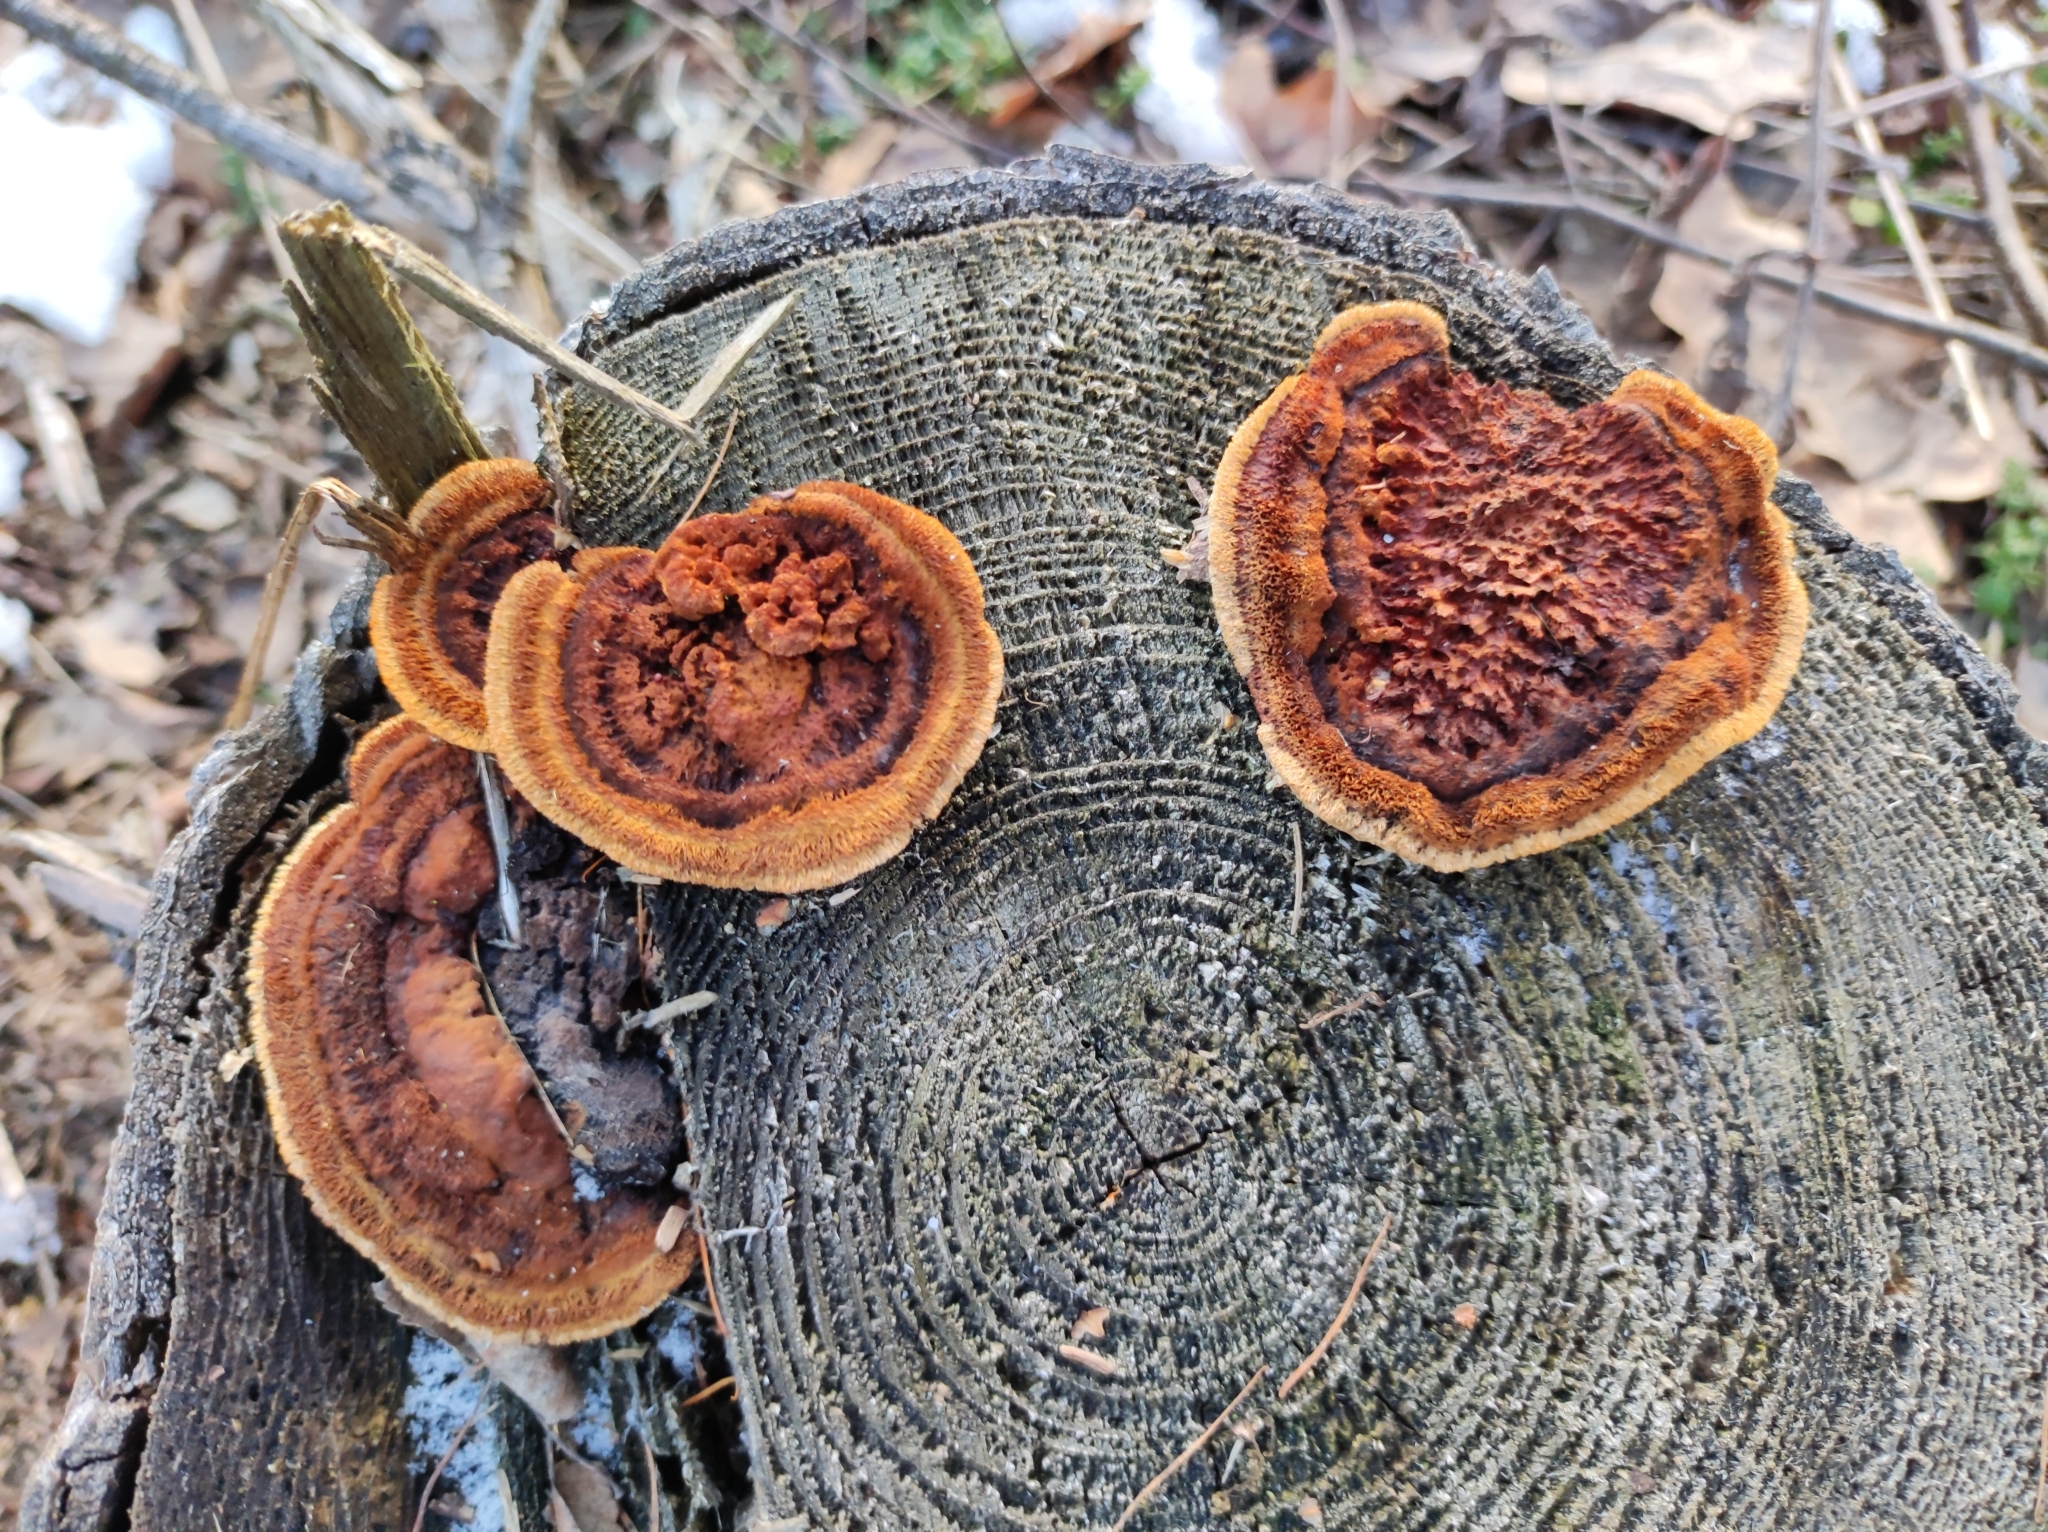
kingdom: Fungi
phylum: Basidiomycota
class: Agaricomycetes
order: Gloeophyllales
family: Gloeophyllaceae
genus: Gloeophyllum
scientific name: Gloeophyllum sepiarium
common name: Conifer mazegill
